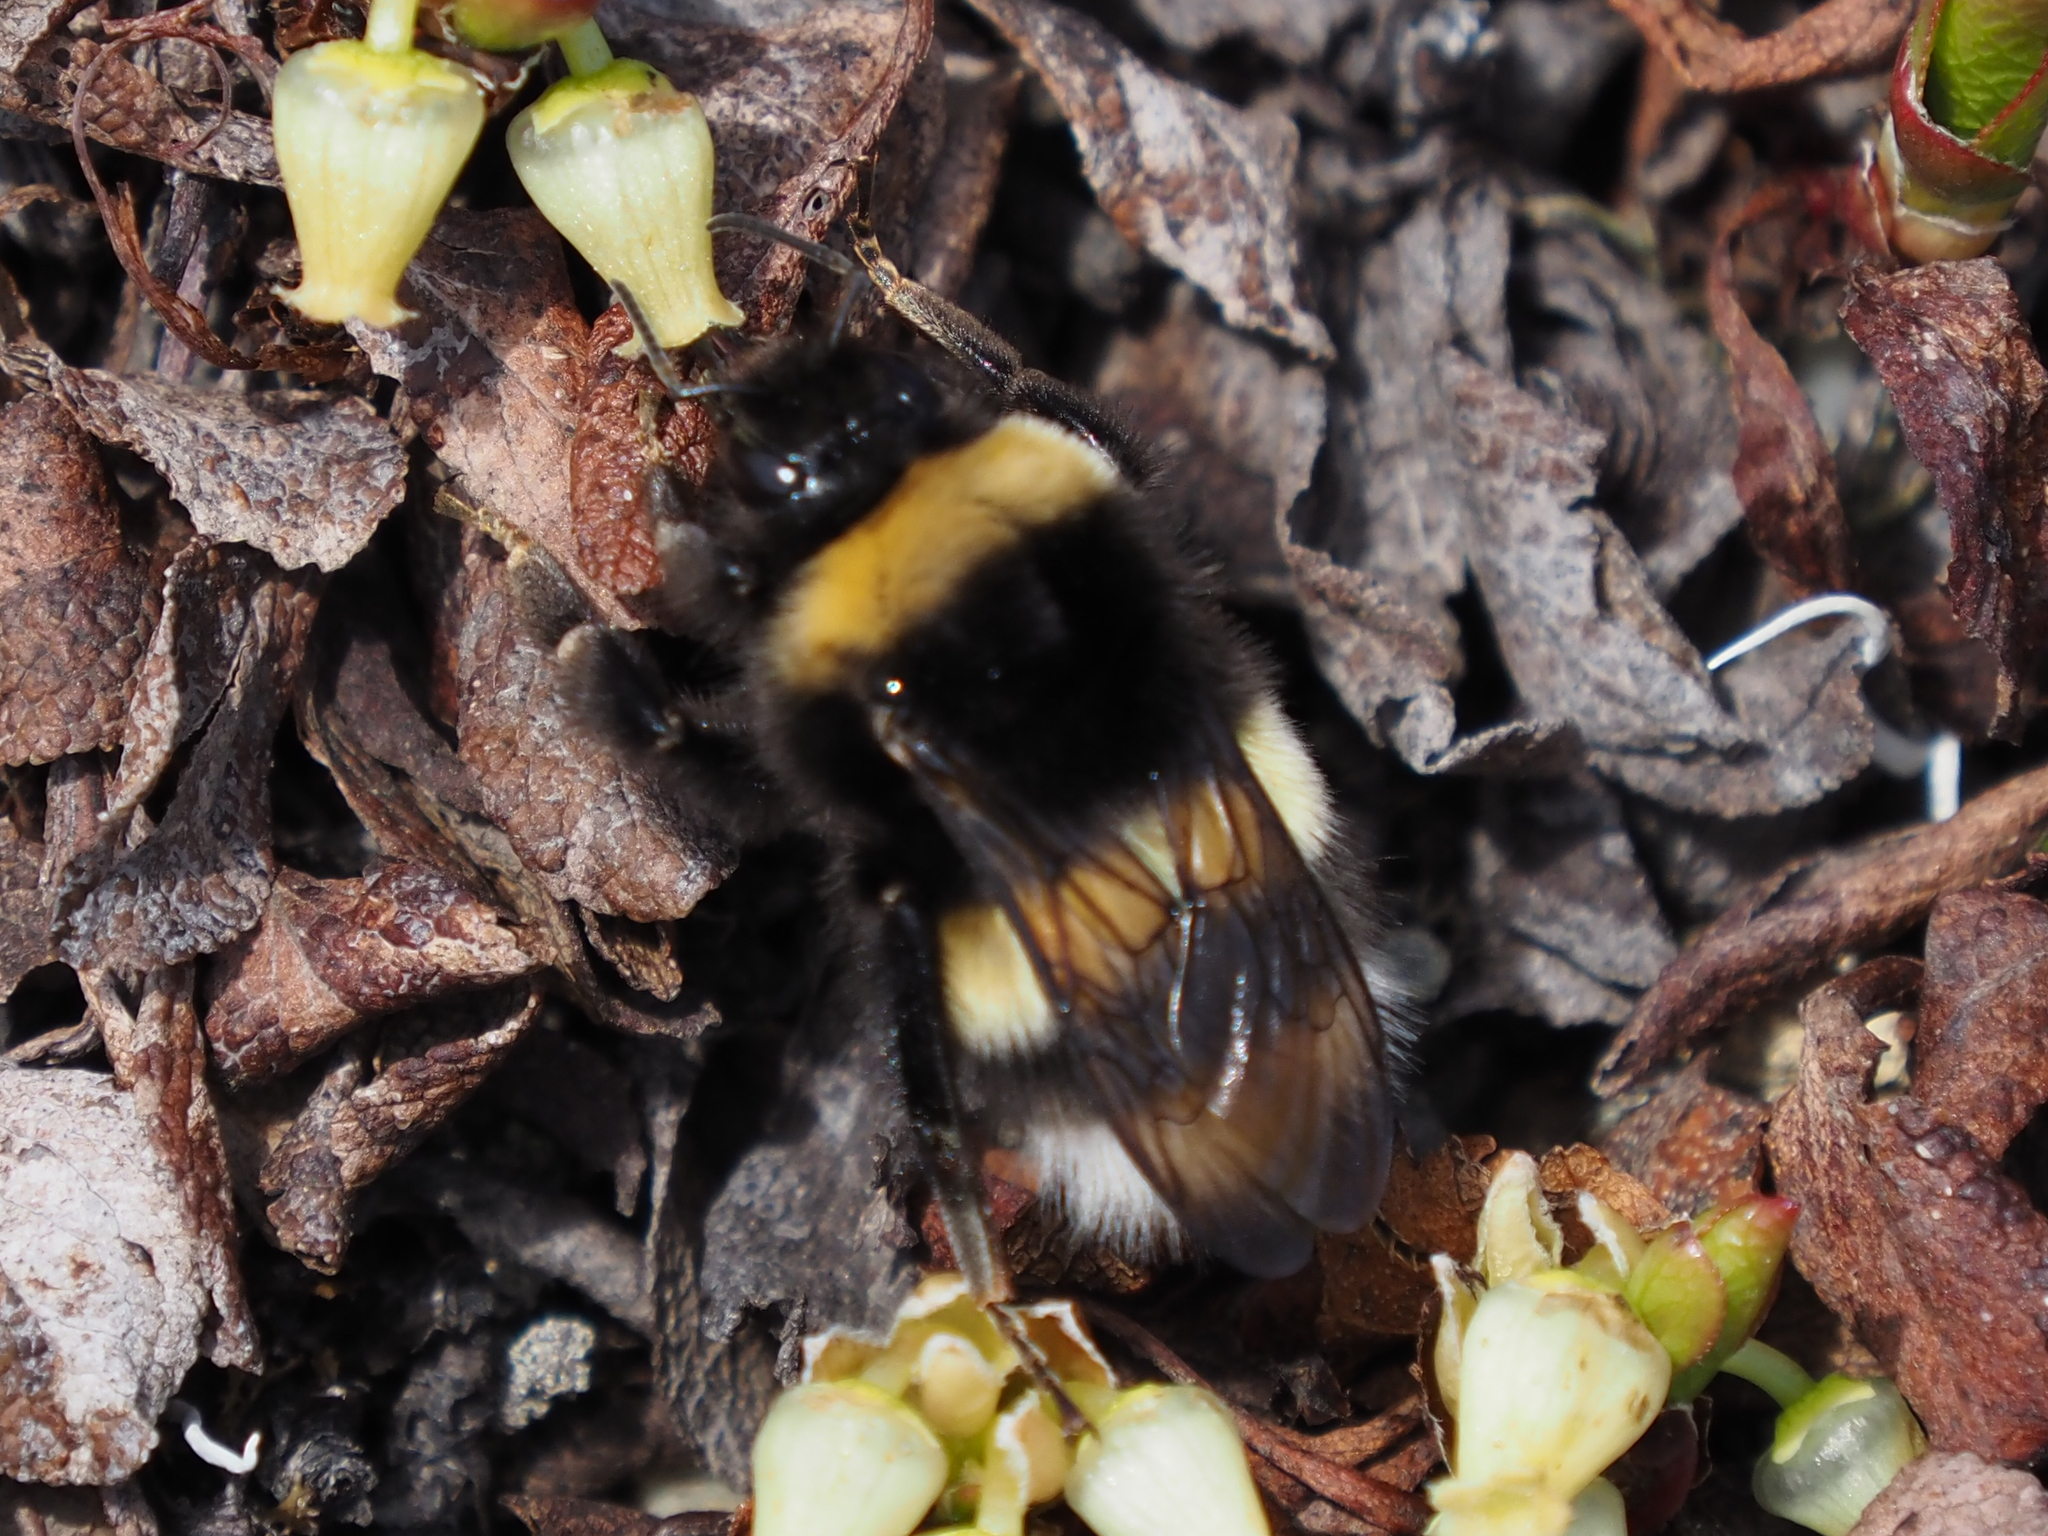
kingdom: Animalia
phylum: Arthropoda
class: Insecta
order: Hymenoptera
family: Apidae
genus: Bombus
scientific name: Bombus cryptarum
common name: Cryptic bumblebee
